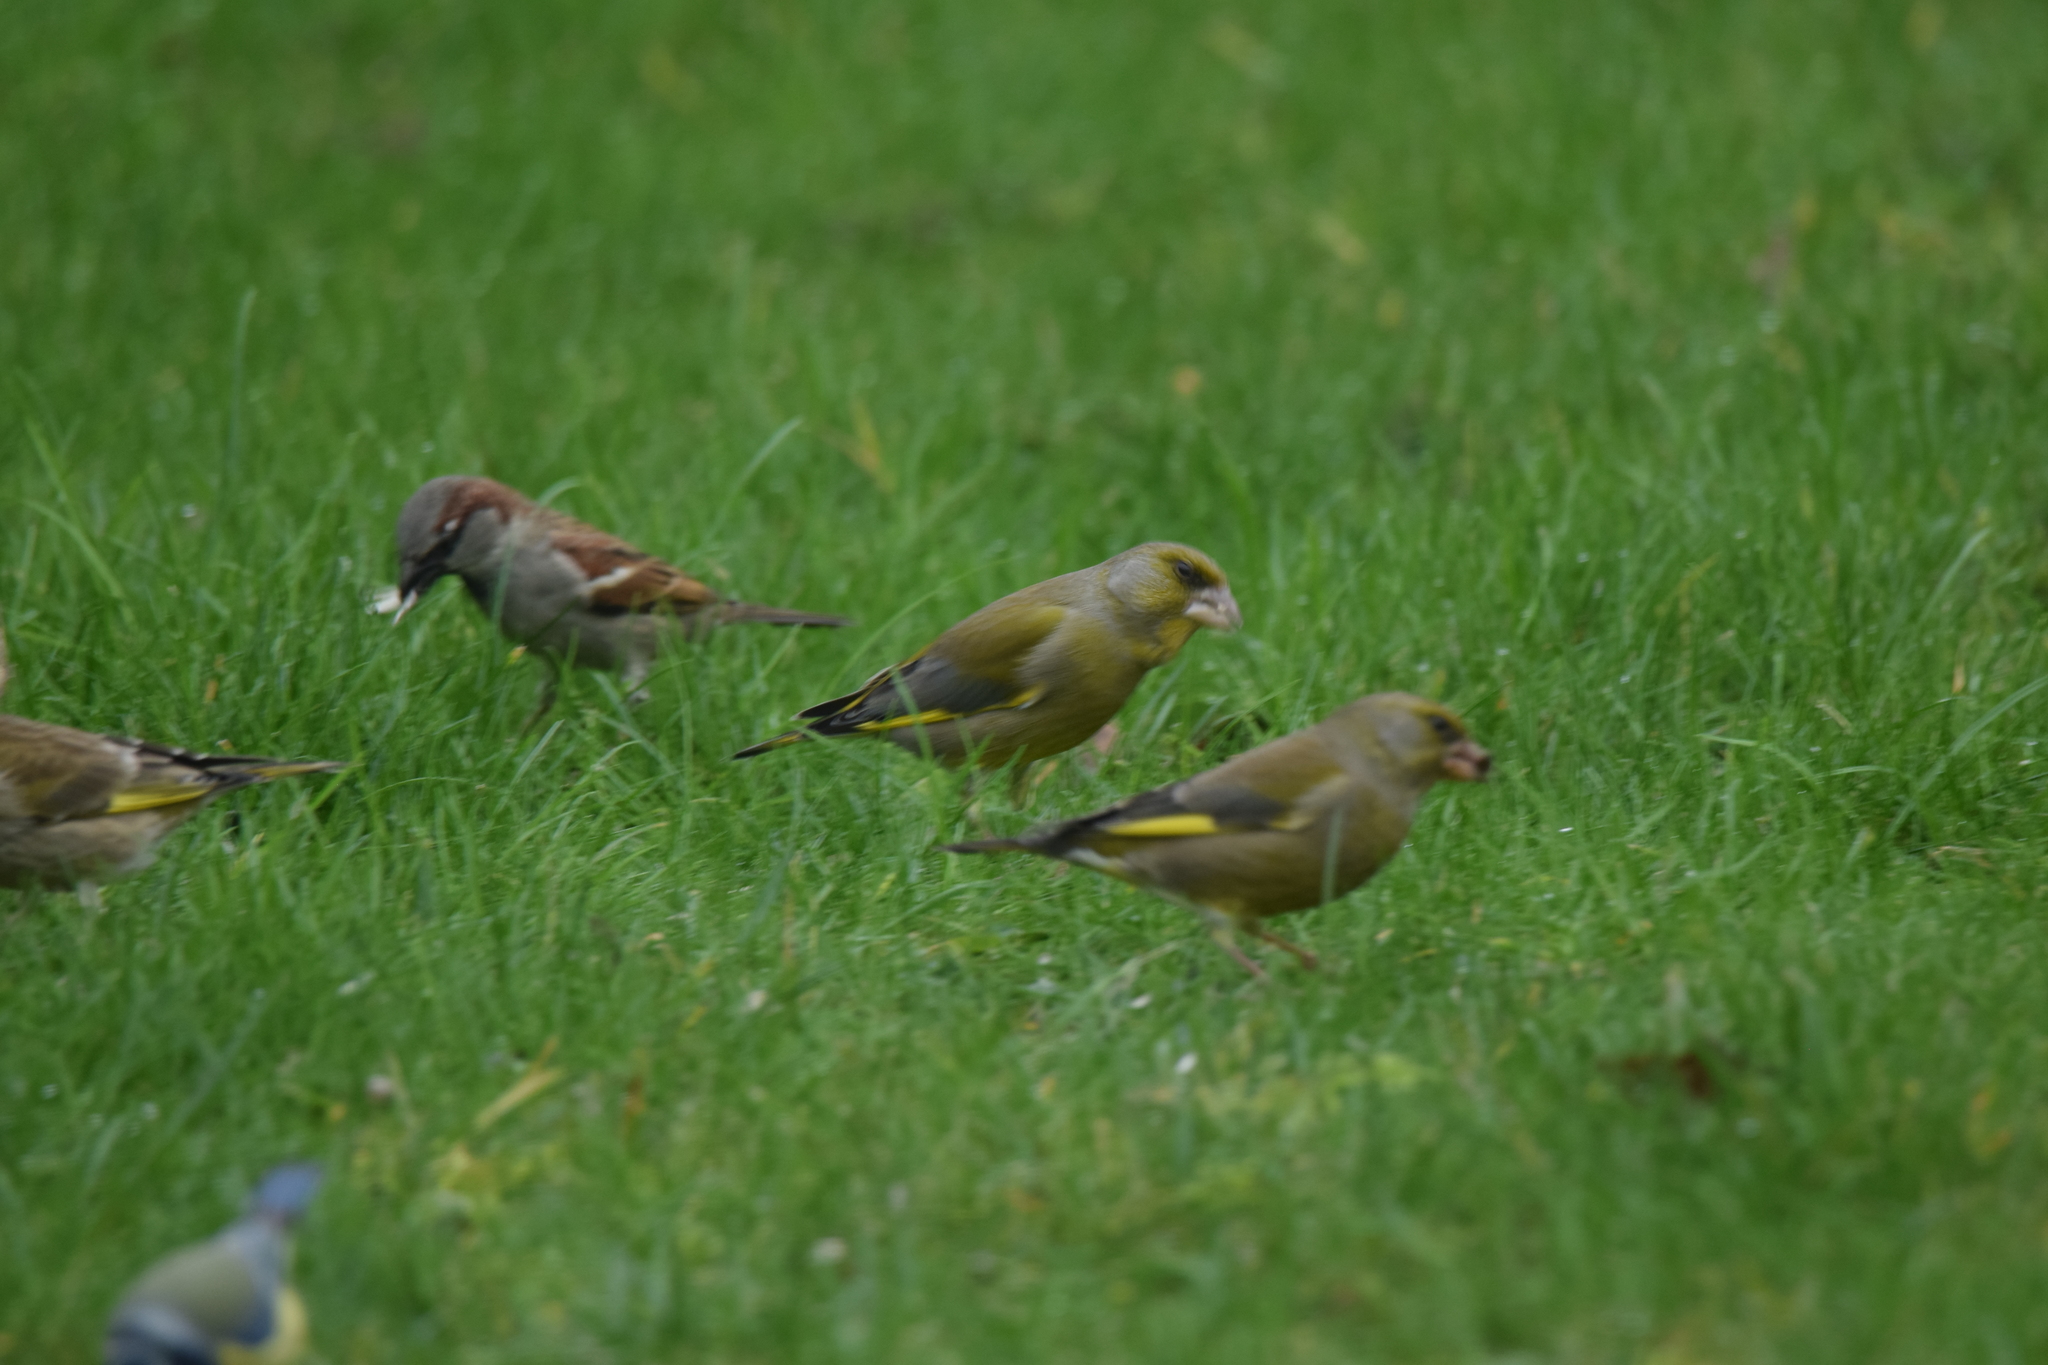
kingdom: Animalia
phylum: Chordata
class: Aves
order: Passeriformes
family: Passeridae
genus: Passer
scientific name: Passer domesticus
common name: House sparrow
